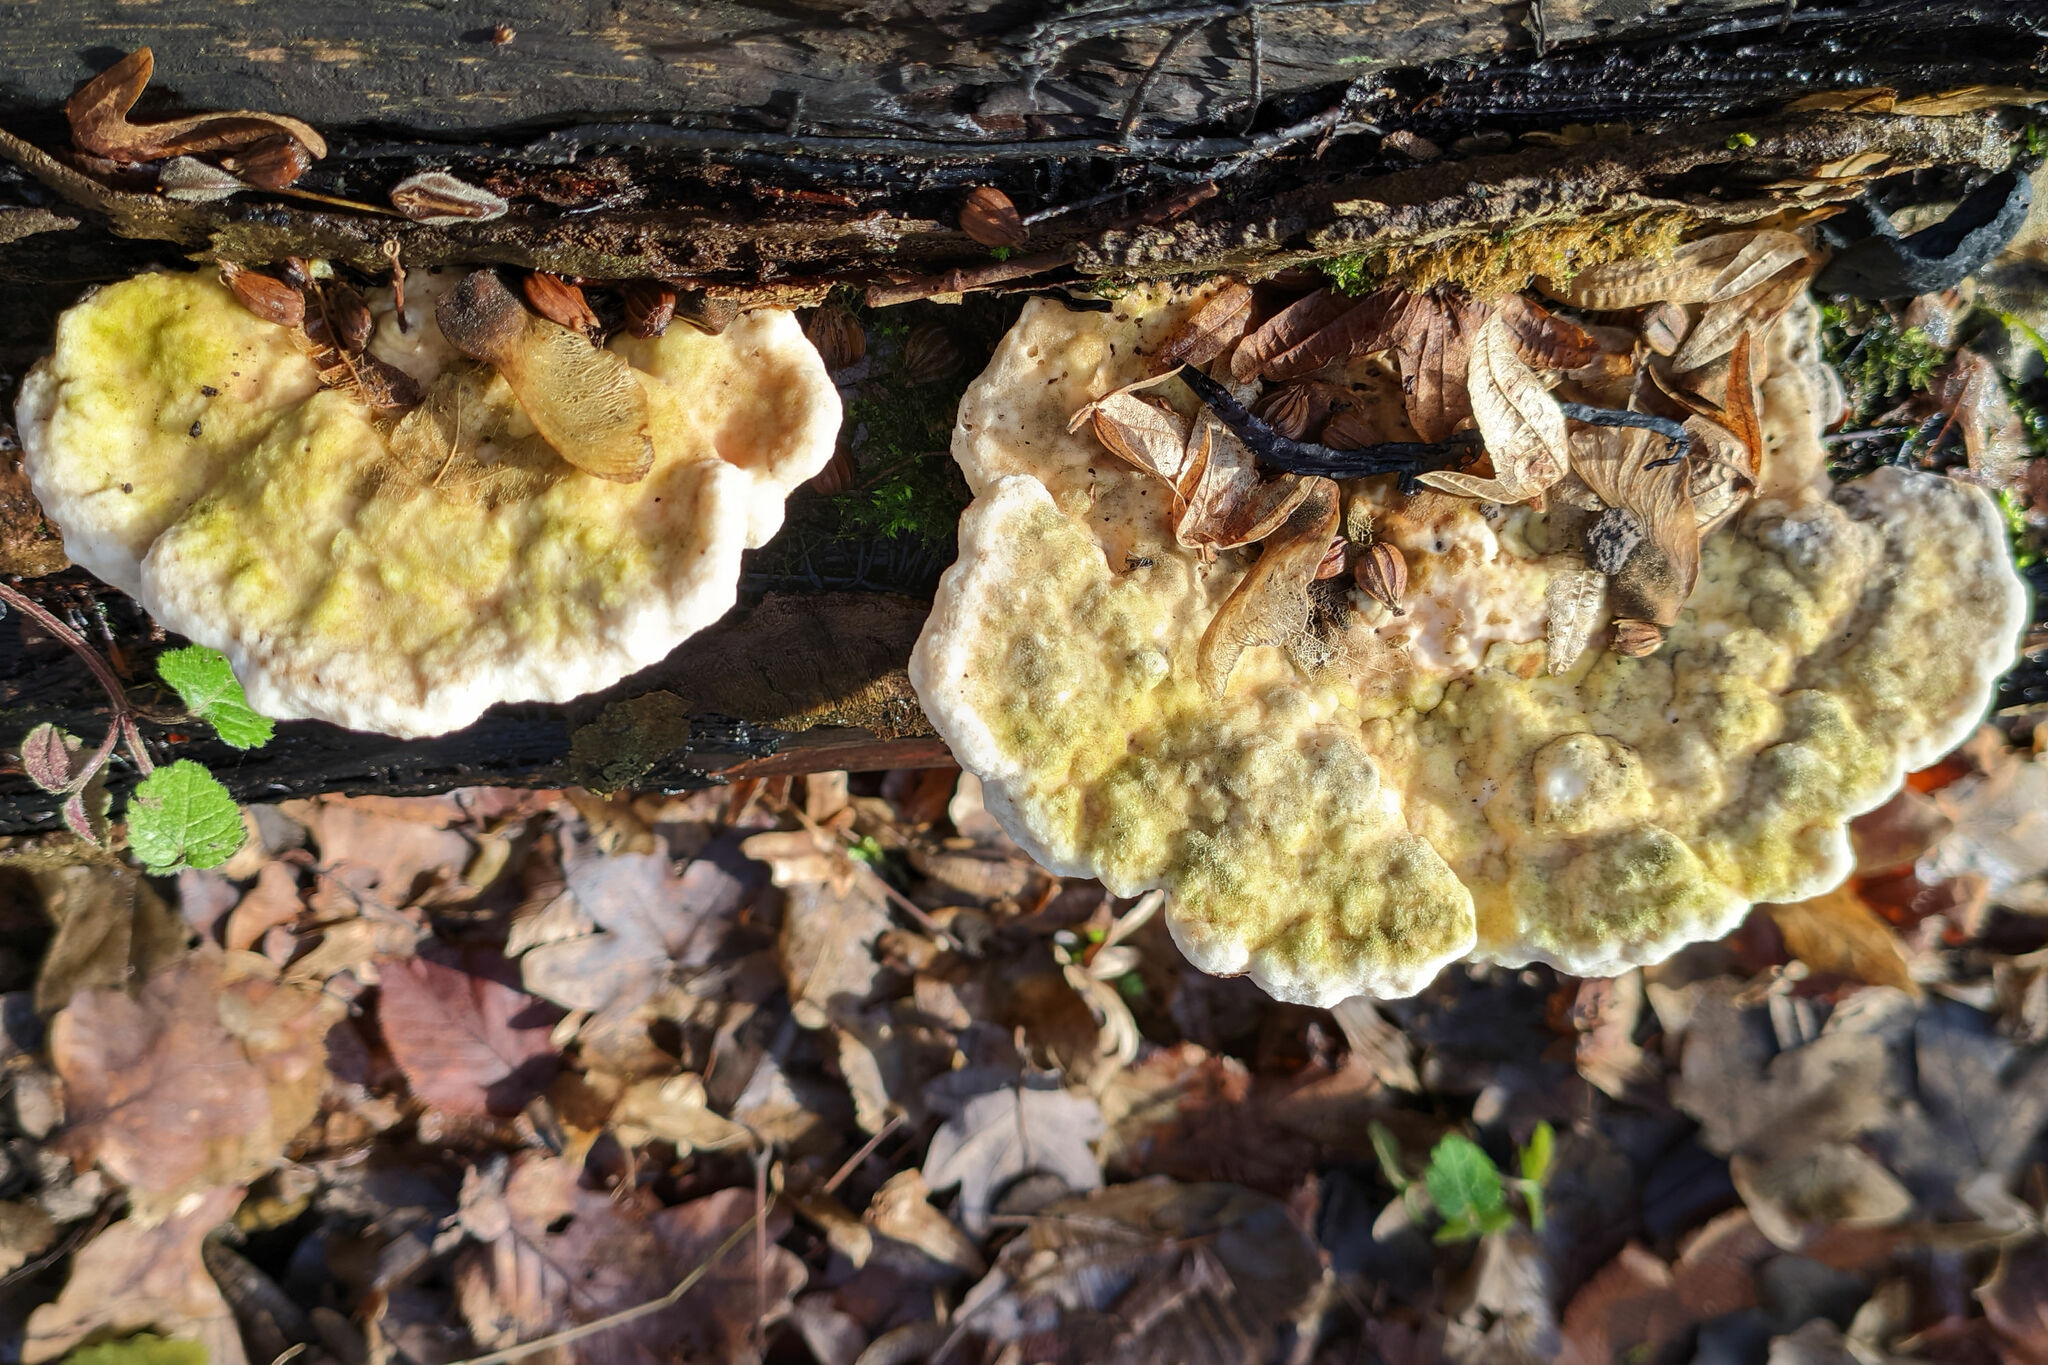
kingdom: Fungi
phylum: Basidiomycota
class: Agaricomycetes
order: Polyporales
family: Polyporaceae
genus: Trametes
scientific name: Trametes gibbosa
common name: Lumpy bracket
